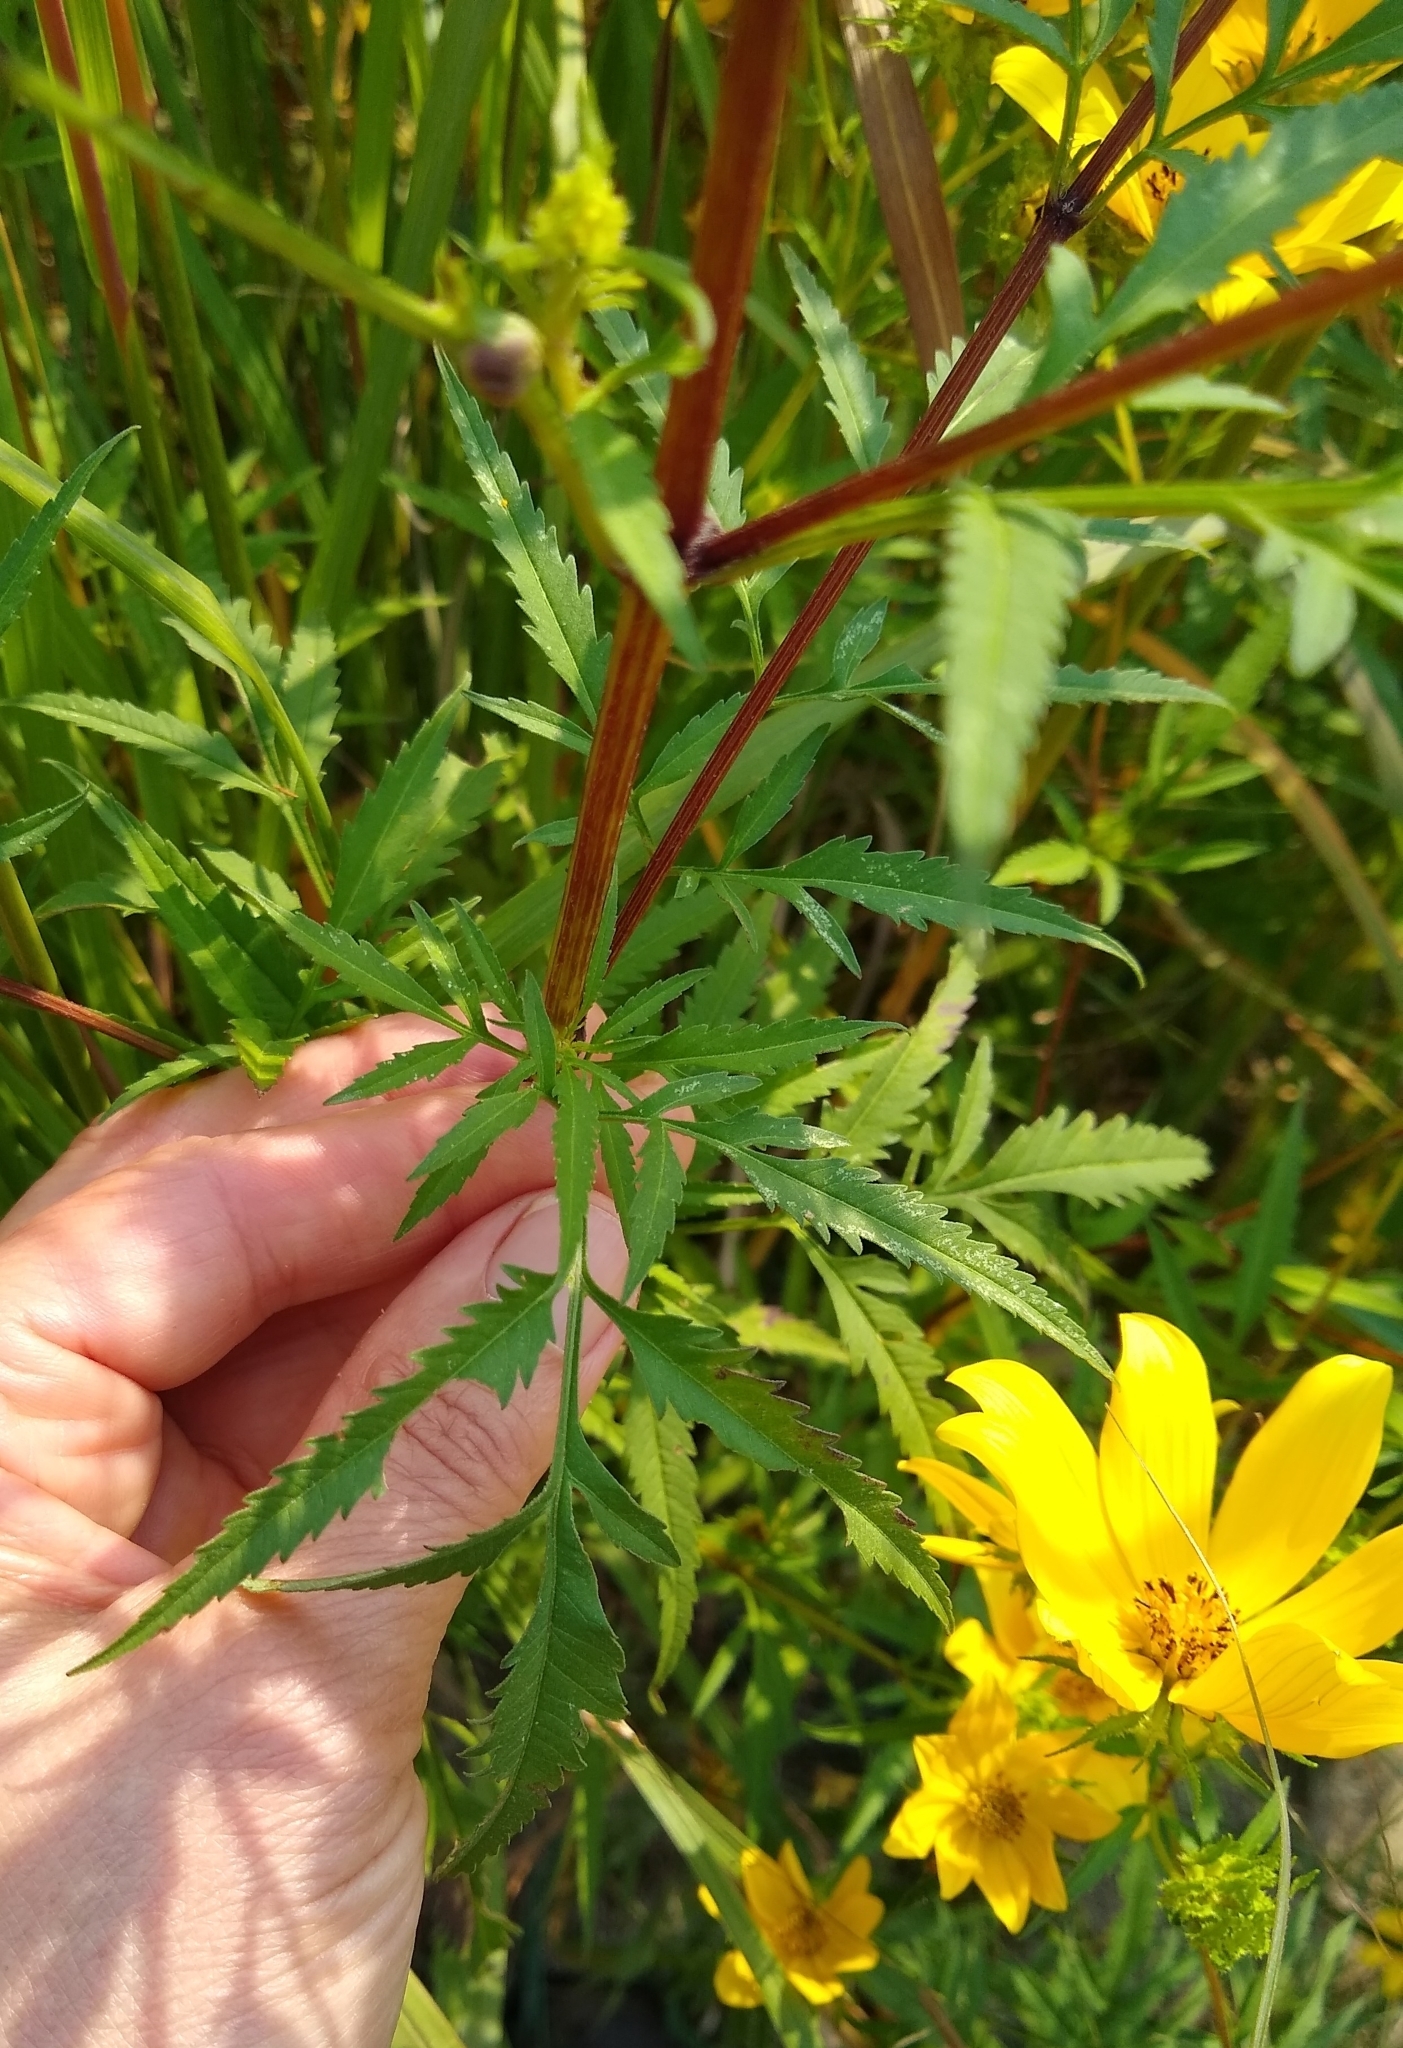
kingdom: Plantae
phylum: Tracheophyta
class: Magnoliopsida
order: Asterales
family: Asteraceae
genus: Bidens
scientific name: Bidens polylepis
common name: Awnless beggarticks
